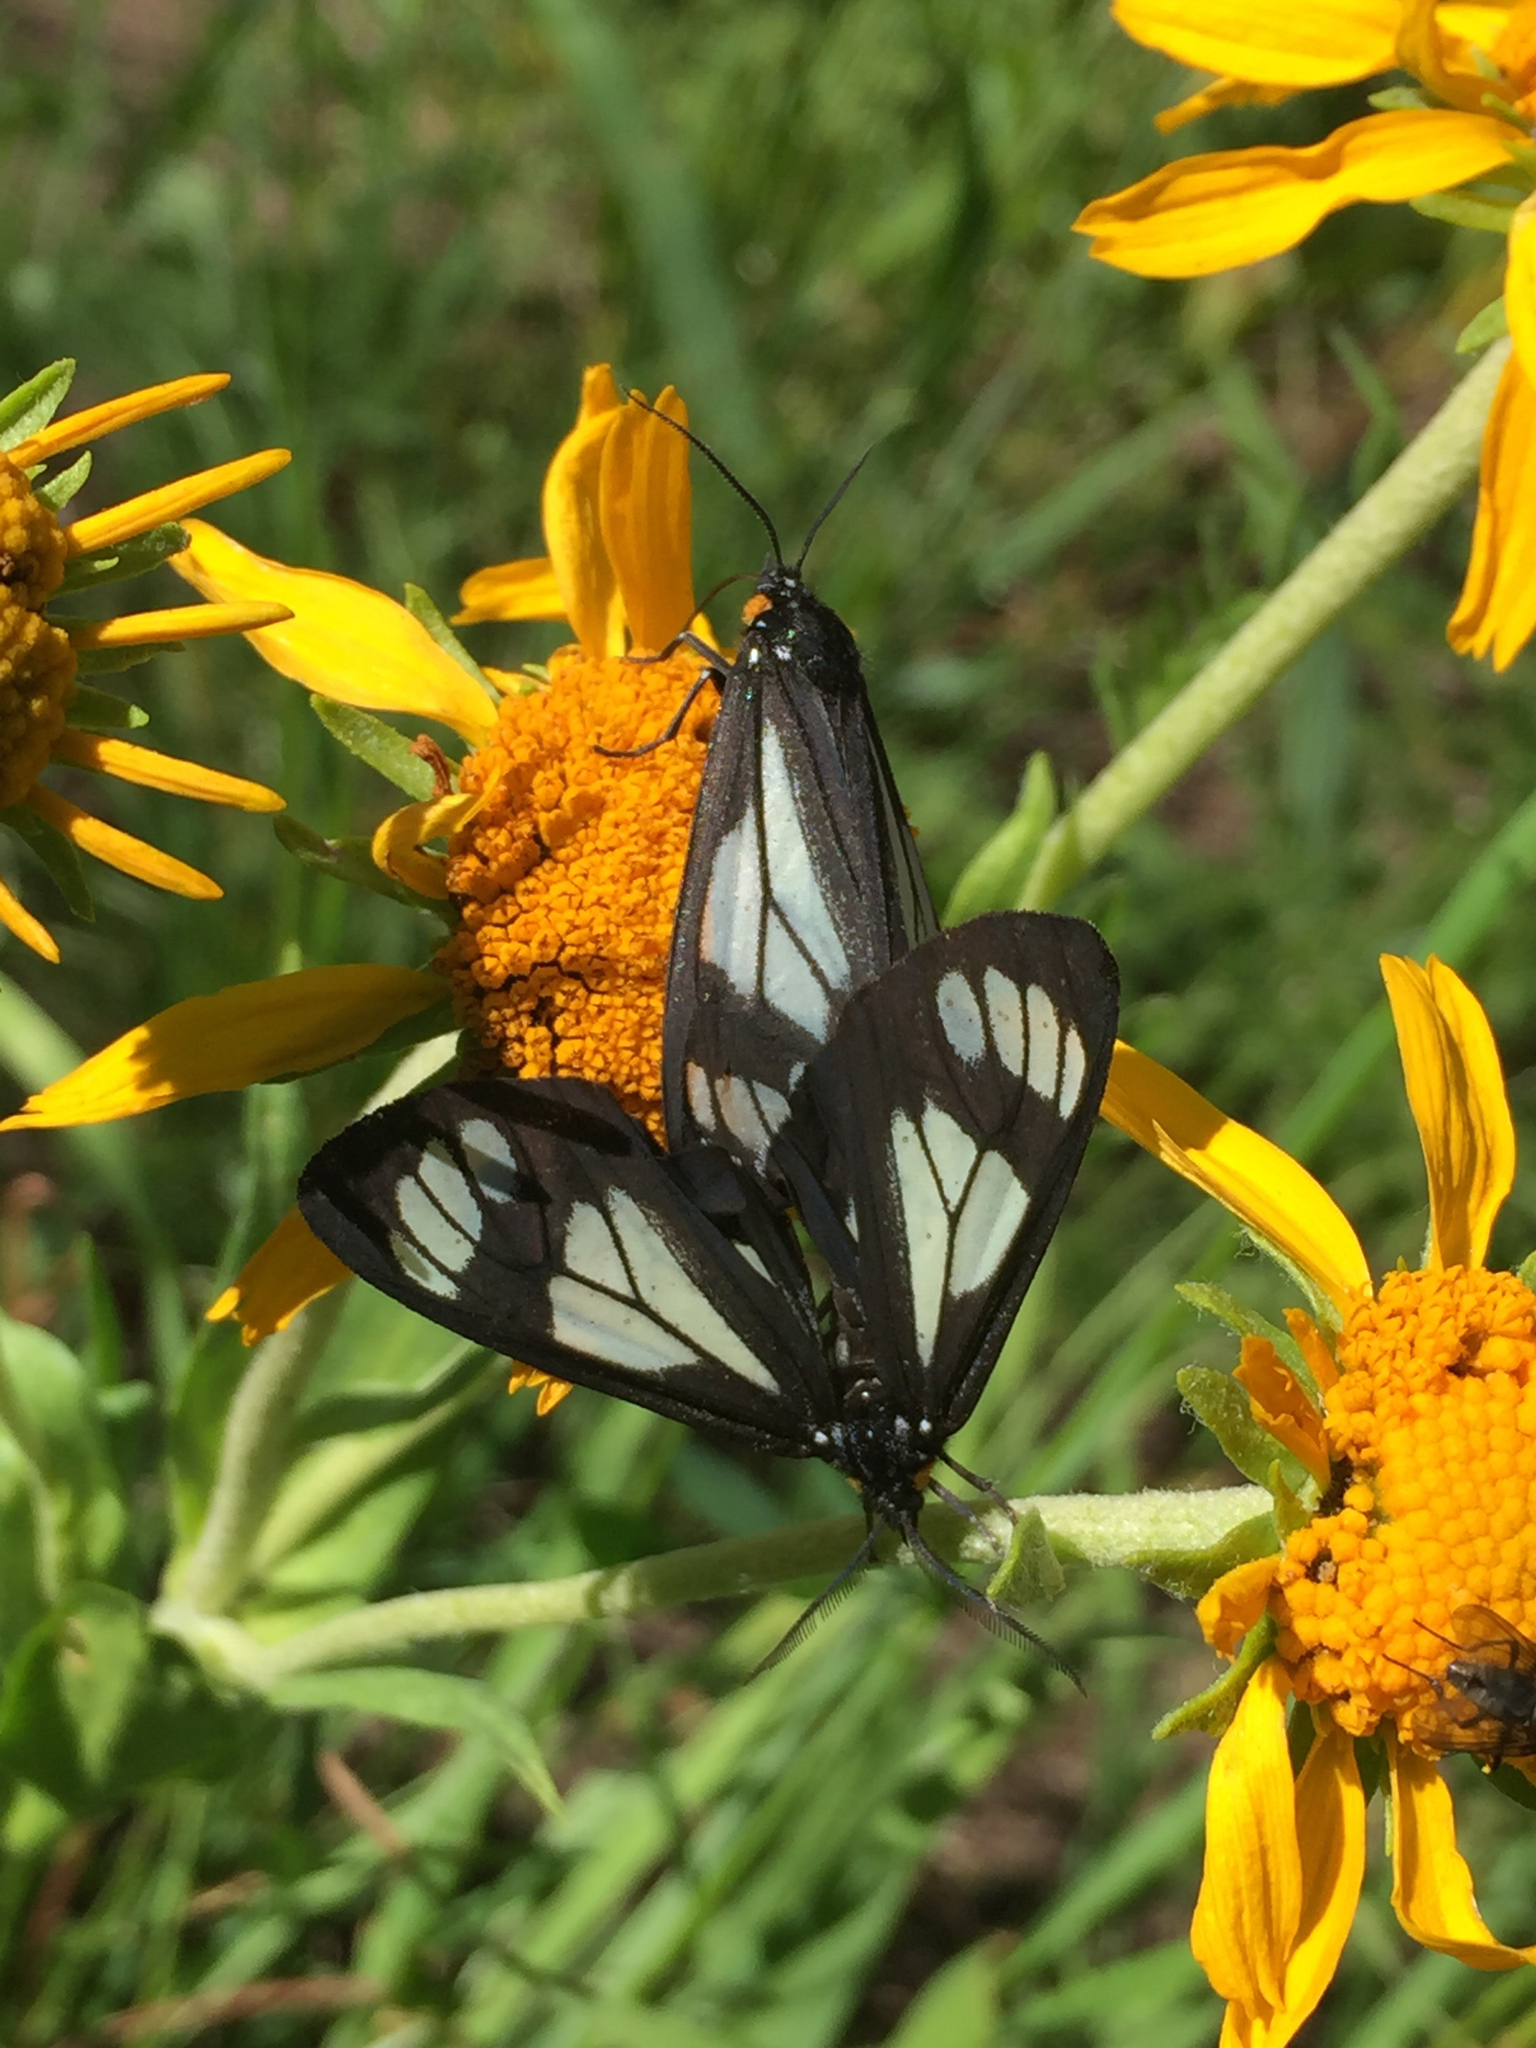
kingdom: Animalia
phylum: Arthropoda
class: Insecta
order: Lepidoptera
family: Erebidae
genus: Gnophaela
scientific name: Gnophaela vermiculata
